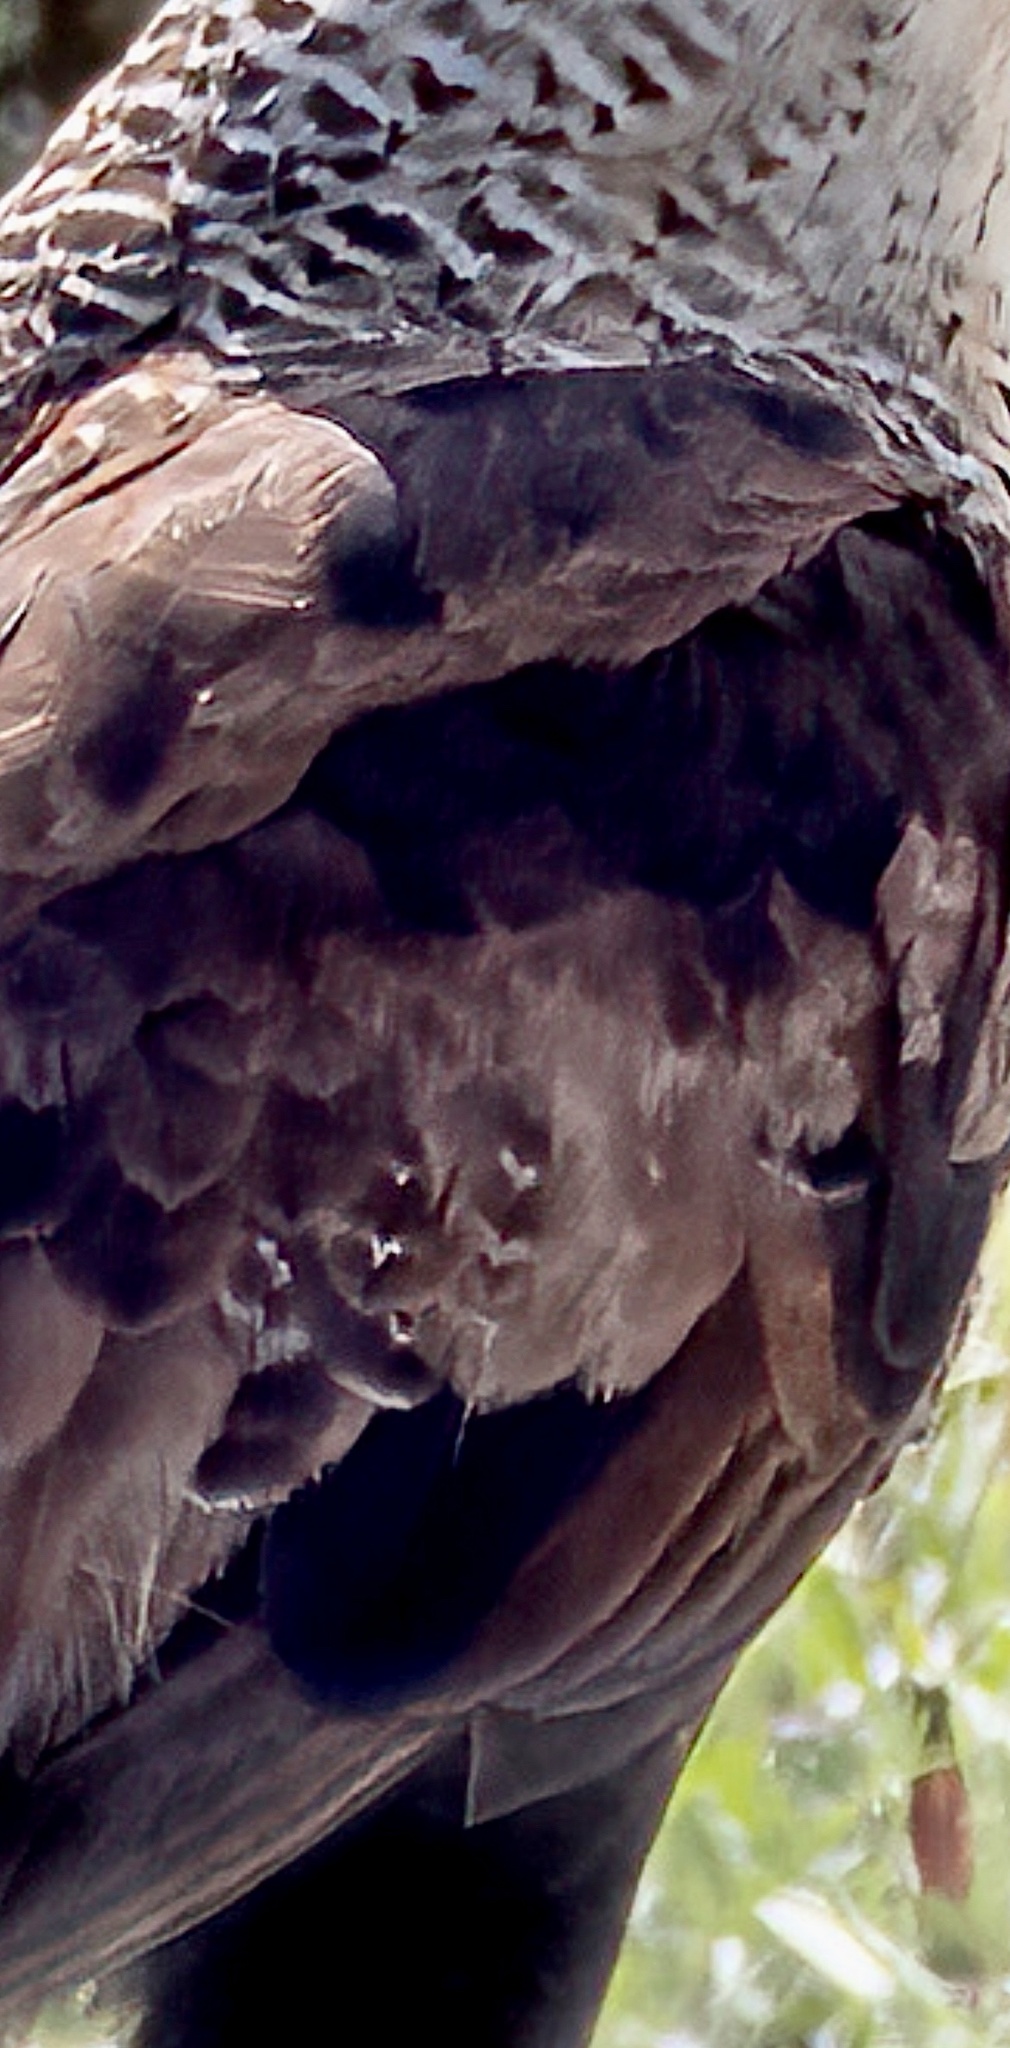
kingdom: Animalia
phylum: Chordata
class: Aves
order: Falconiformes
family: Falconidae
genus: Caracara
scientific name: Caracara plancus
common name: Southern caracara
